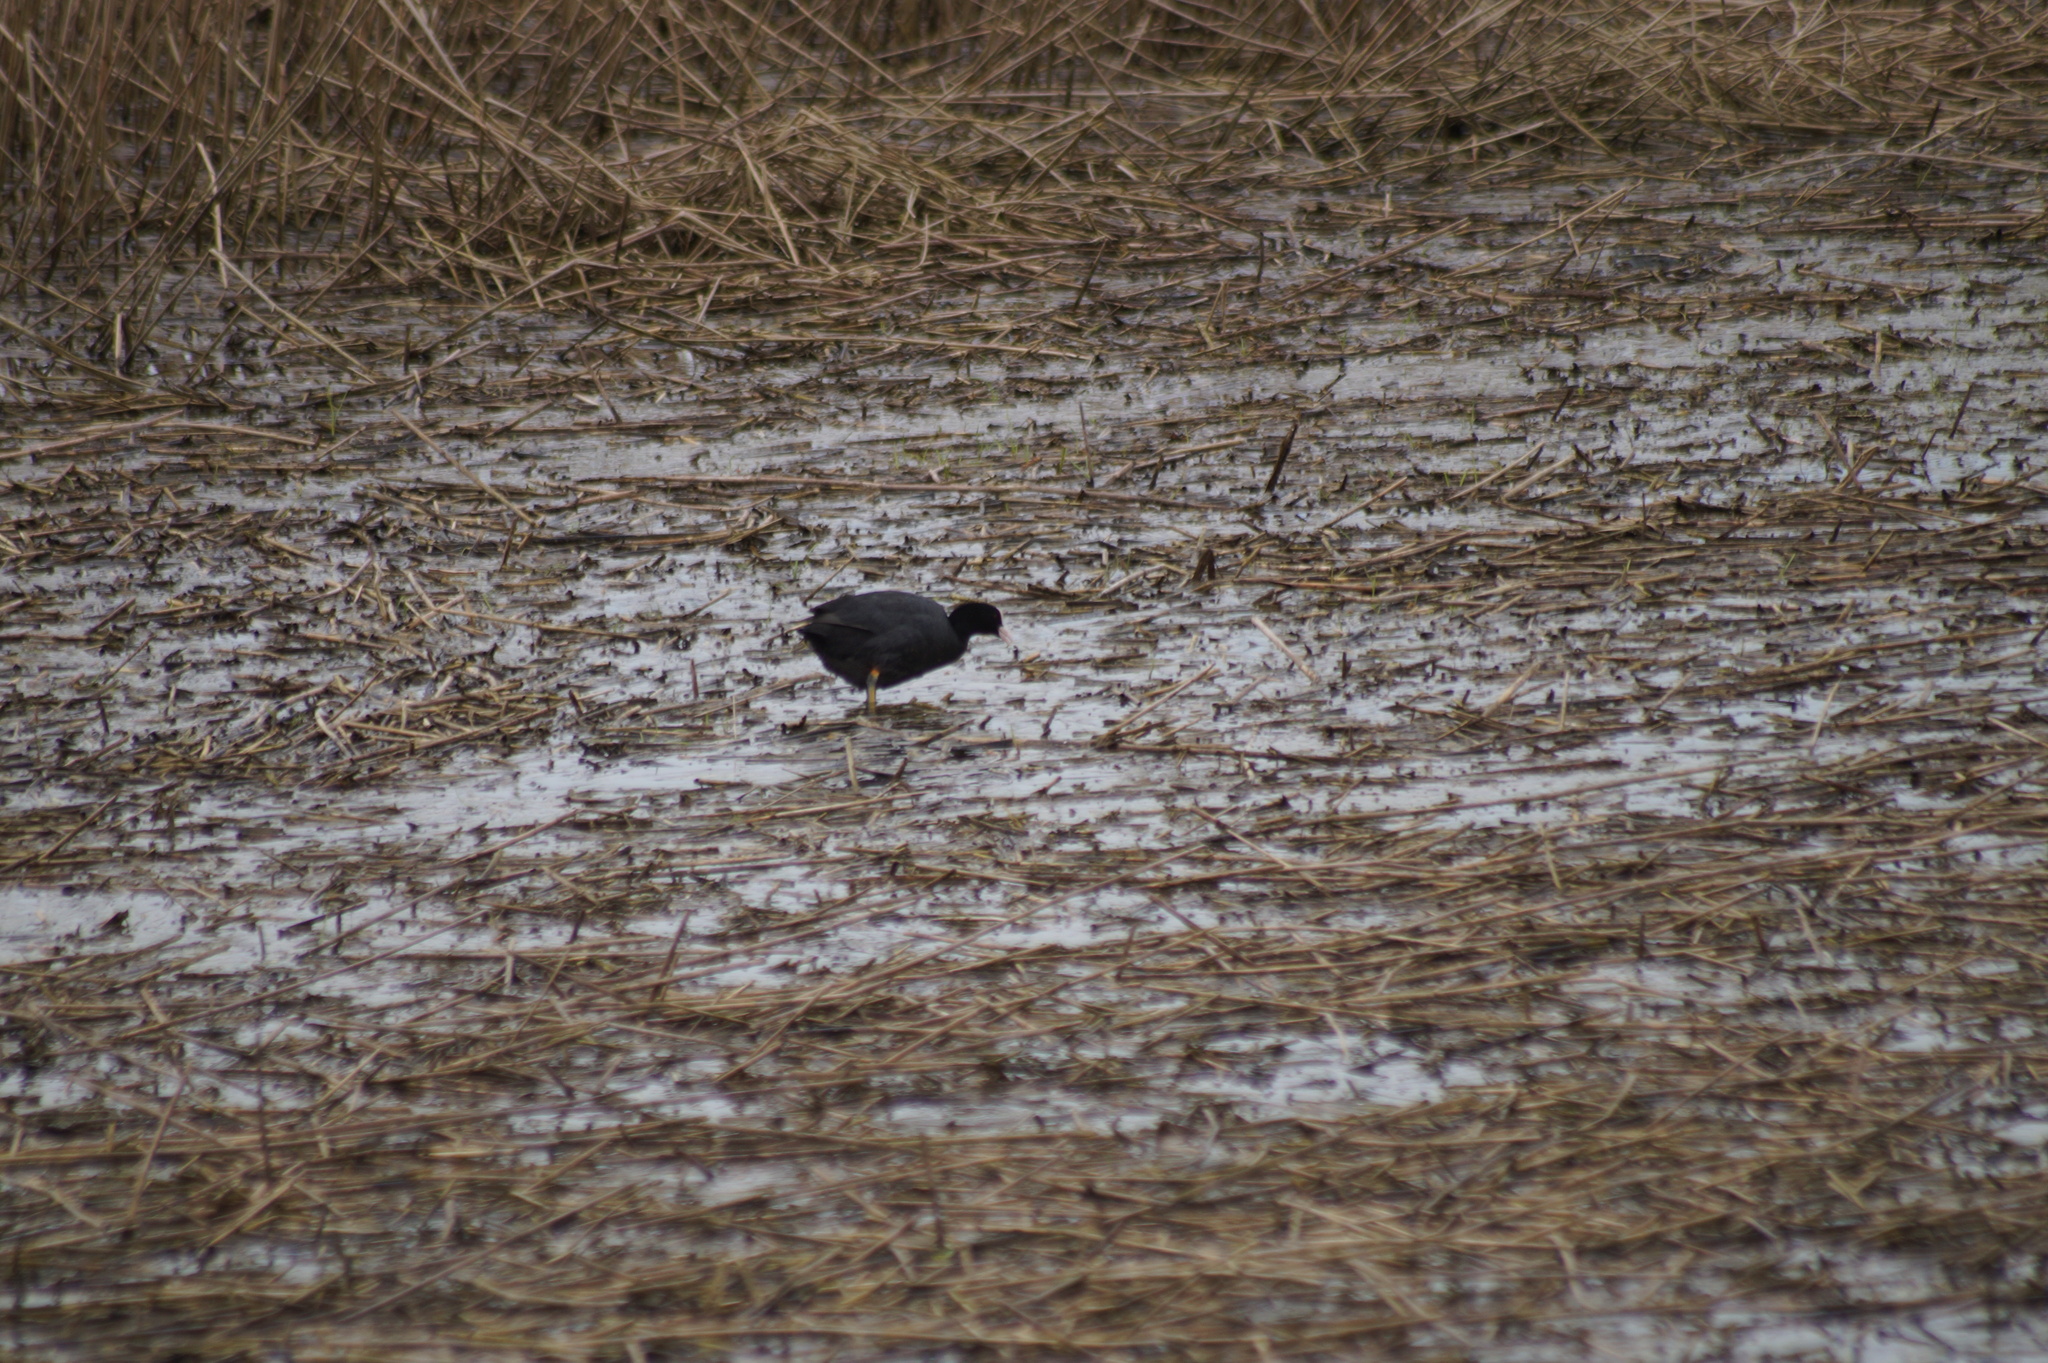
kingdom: Animalia
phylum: Chordata
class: Aves
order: Gruiformes
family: Rallidae
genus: Fulica
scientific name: Fulica atra
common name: Eurasian coot
